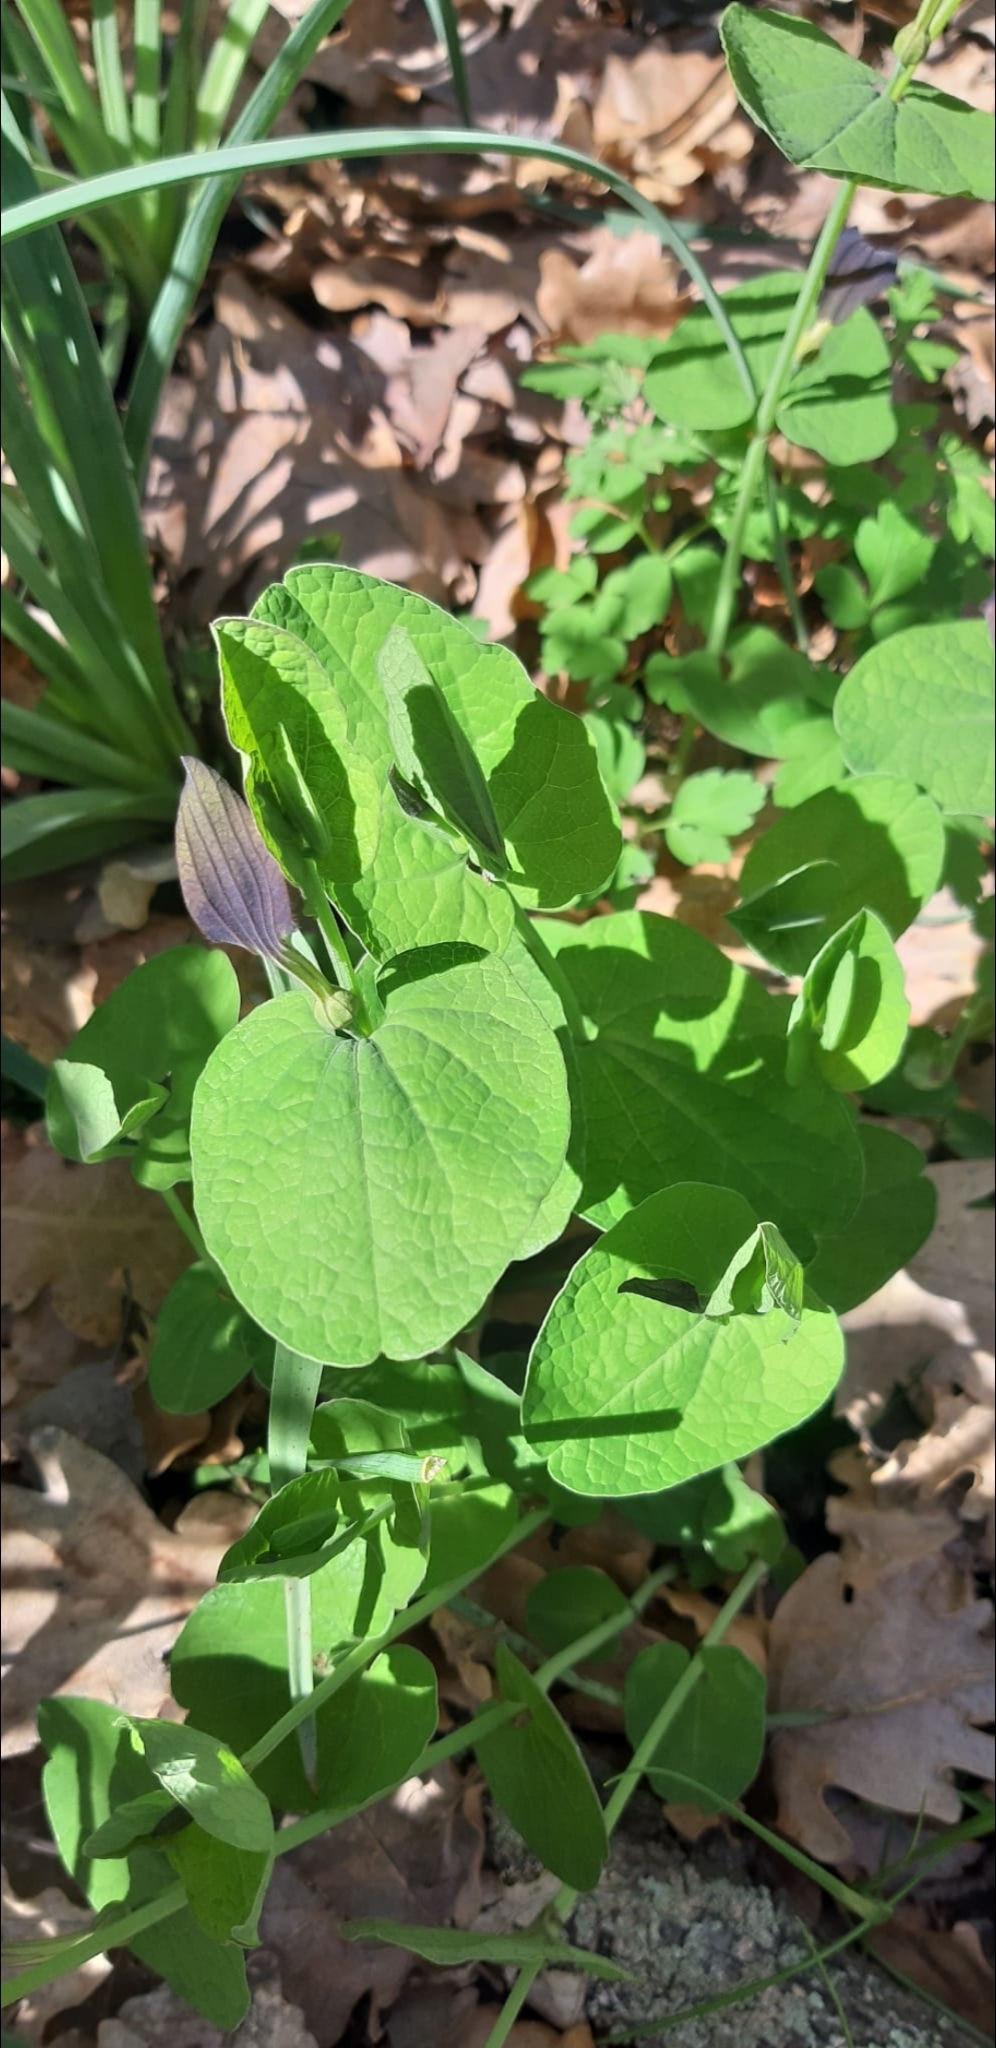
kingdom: Plantae
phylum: Tracheophyta
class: Magnoliopsida
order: Piperales
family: Aristolochiaceae
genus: Aristolochia
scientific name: Aristolochia rotunda
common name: Smearwort
